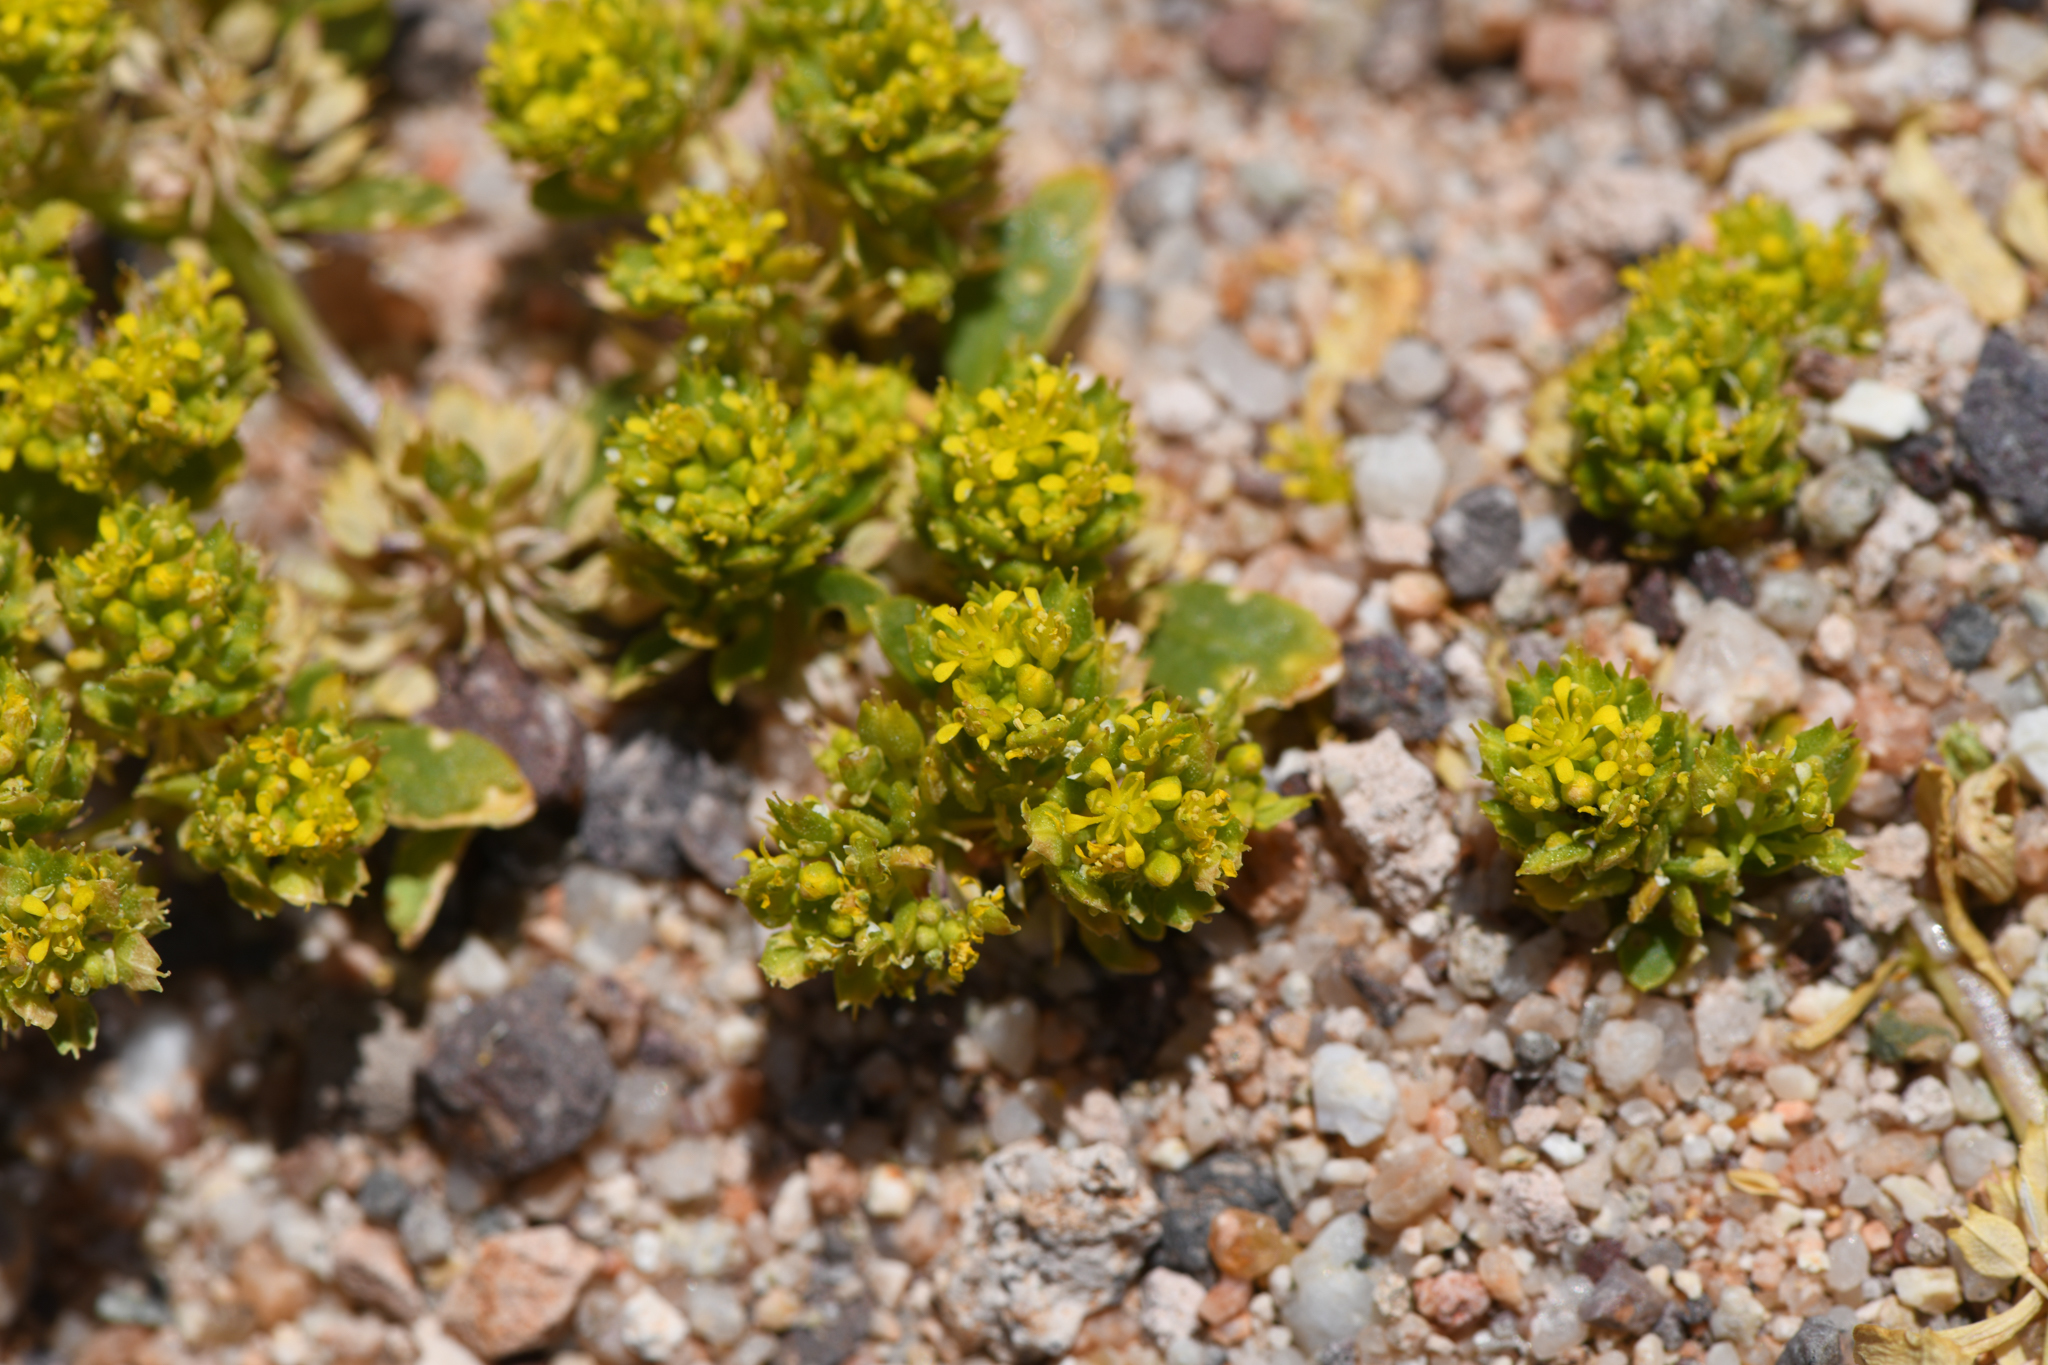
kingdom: Plantae
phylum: Tracheophyta
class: Magnoliopsida
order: Brassicales
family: Brassicaceae
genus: Lepidium
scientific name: Lepidium flavum
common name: Yellow pepperwort
